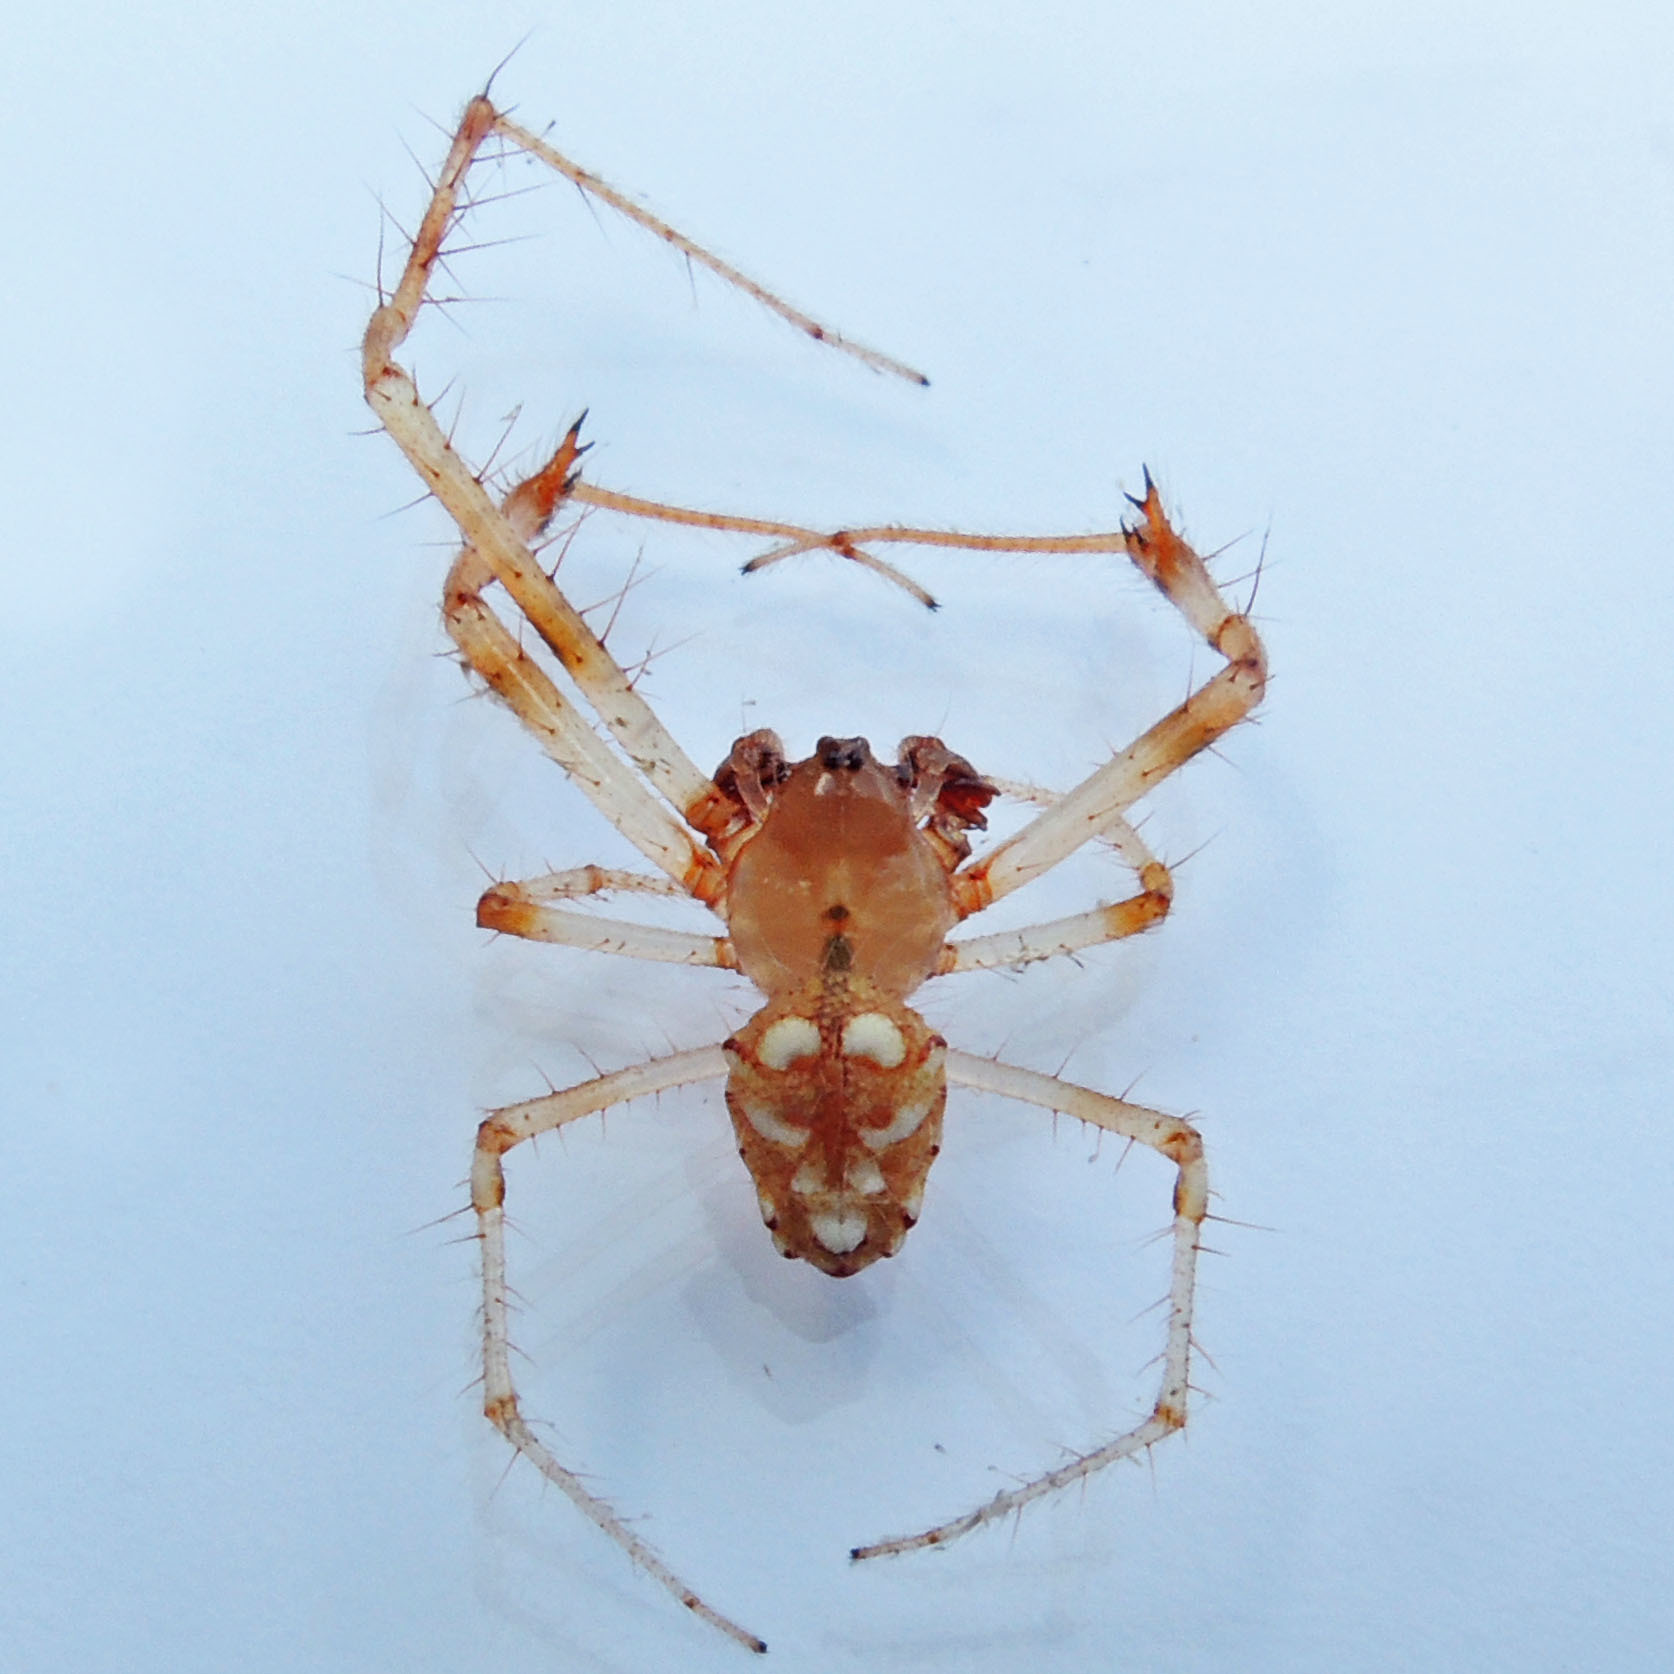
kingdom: Animalia
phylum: Arthropoda
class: Arachnida
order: Araneae
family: Araneidae
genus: Verrucosa
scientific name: Verrucosa arenata
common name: Orb weavers
